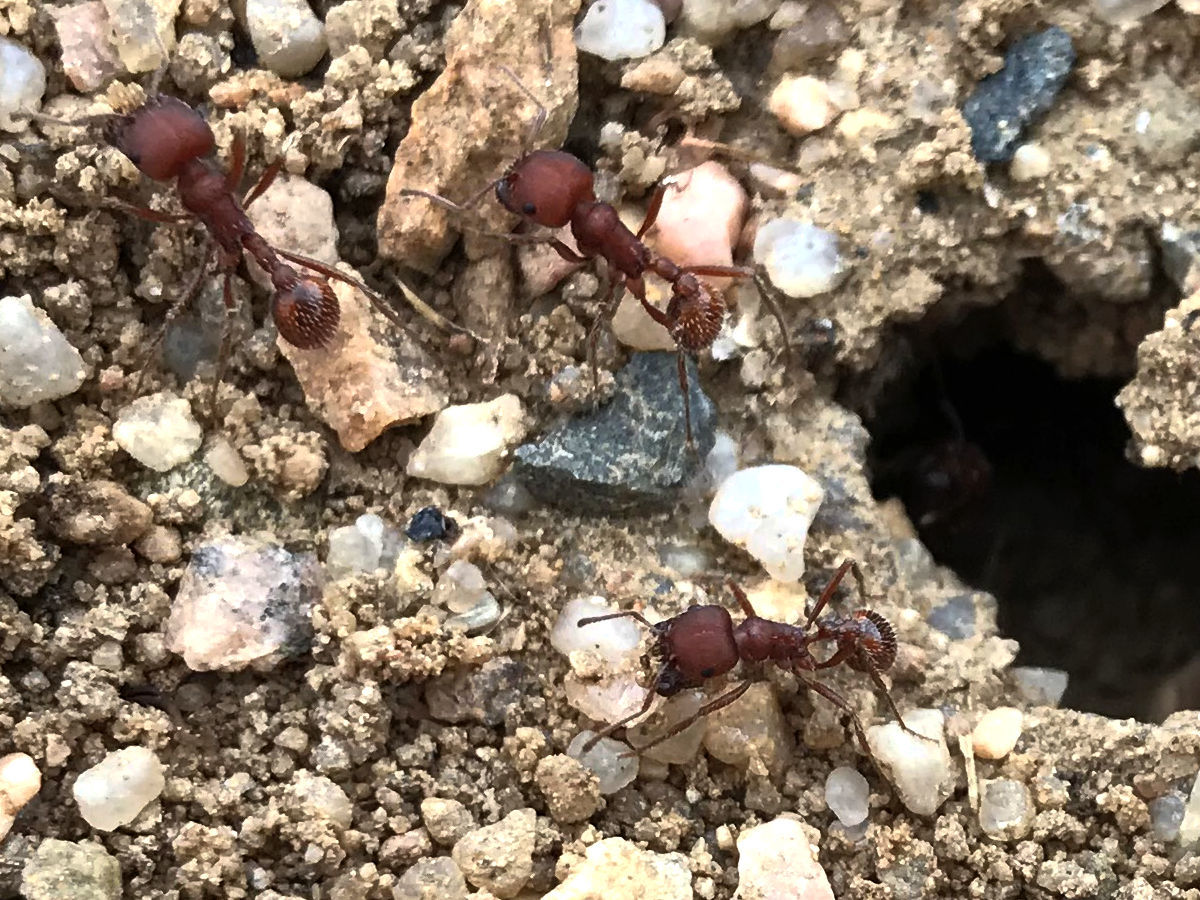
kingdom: Animalia
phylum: Arthropoda
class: Insecta
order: Hymenoptera
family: Formicidae
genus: Pogonomyrmex
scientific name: Pogonomyrmex occidentalis
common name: Western harvester ant
